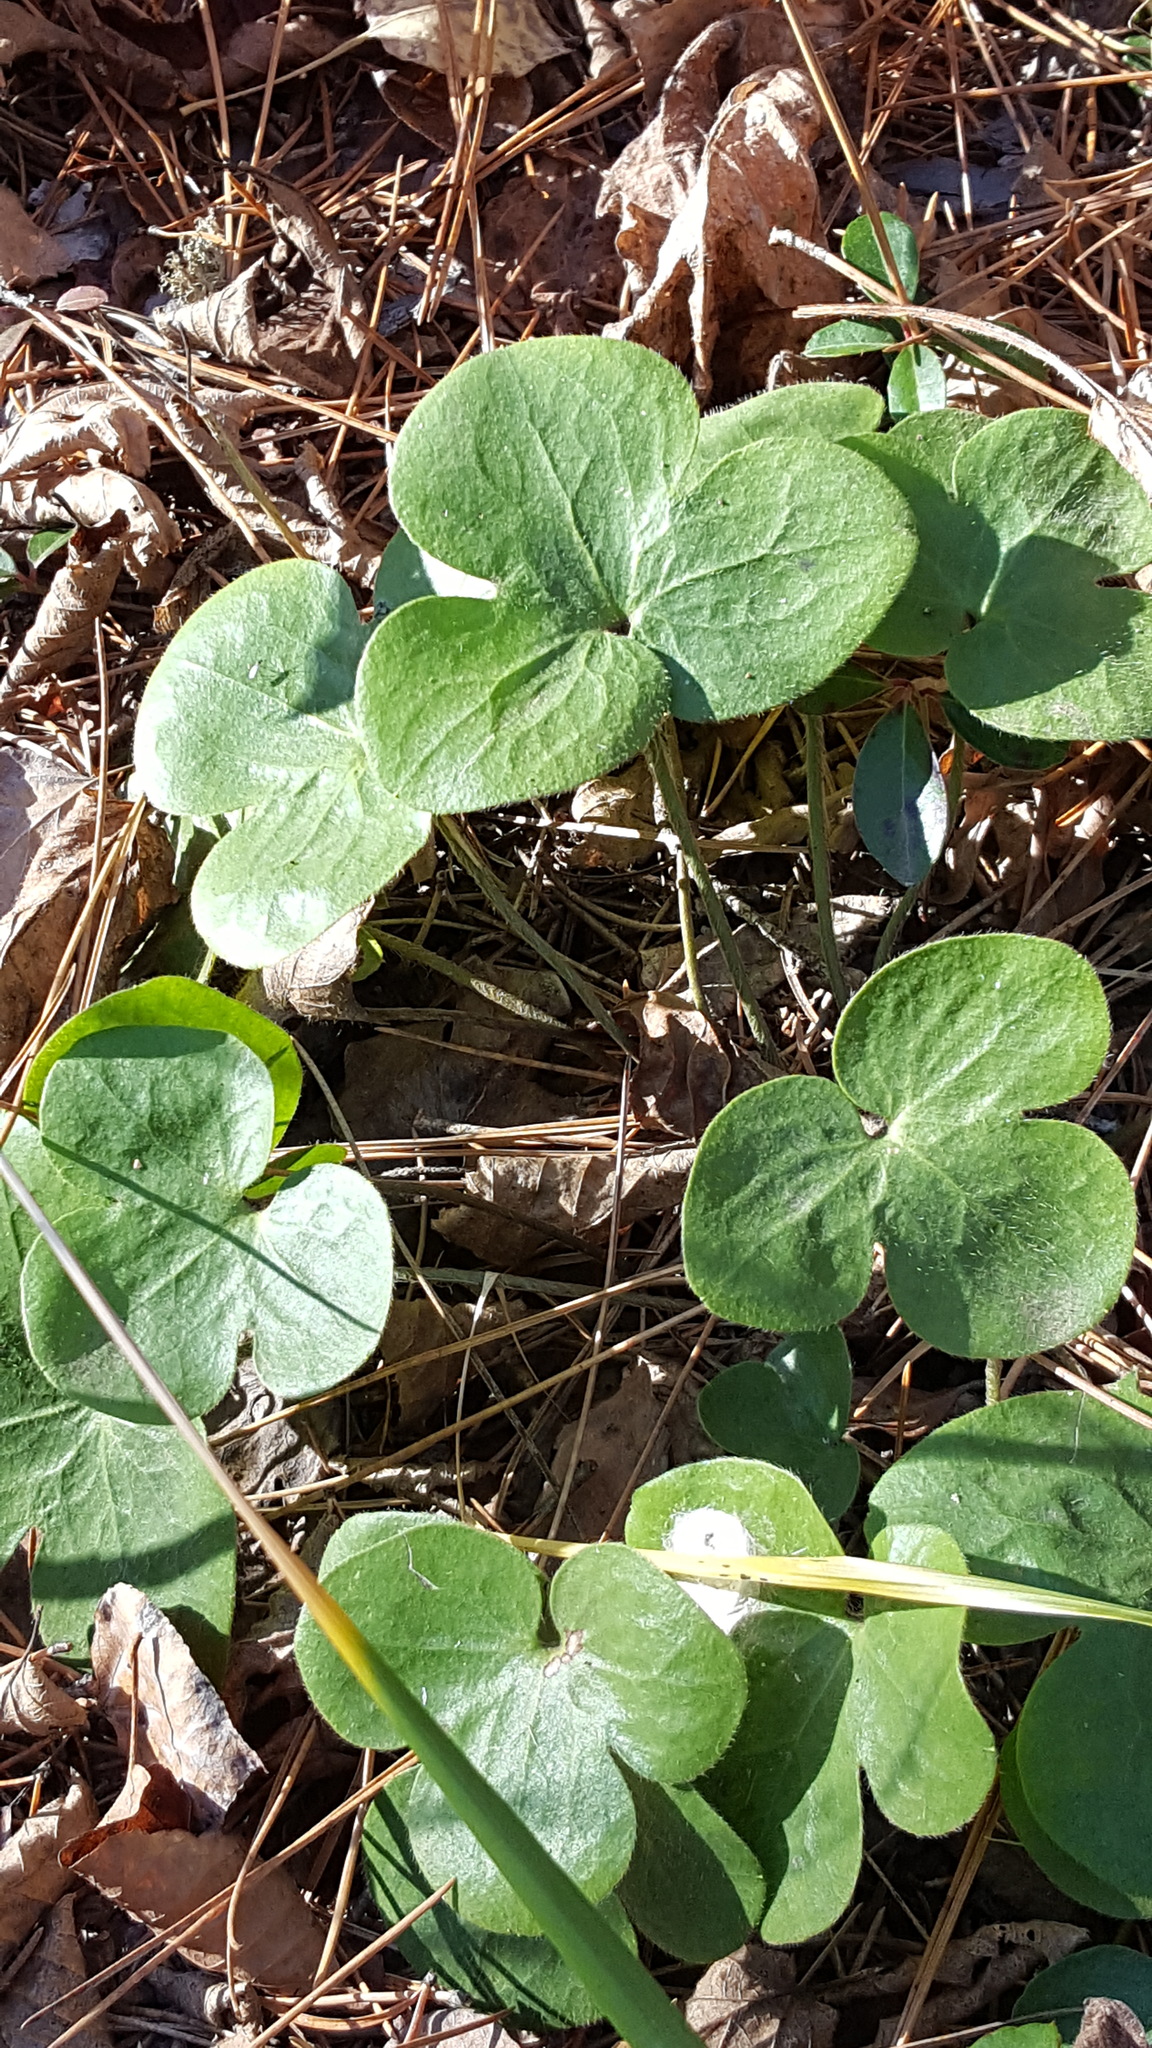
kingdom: Plantae
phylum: Tracheophyta
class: Magnoliopsida
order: Ranunculales
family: Ranunculaceae
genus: Hepatica
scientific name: Hepatica americana
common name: American hepatica
